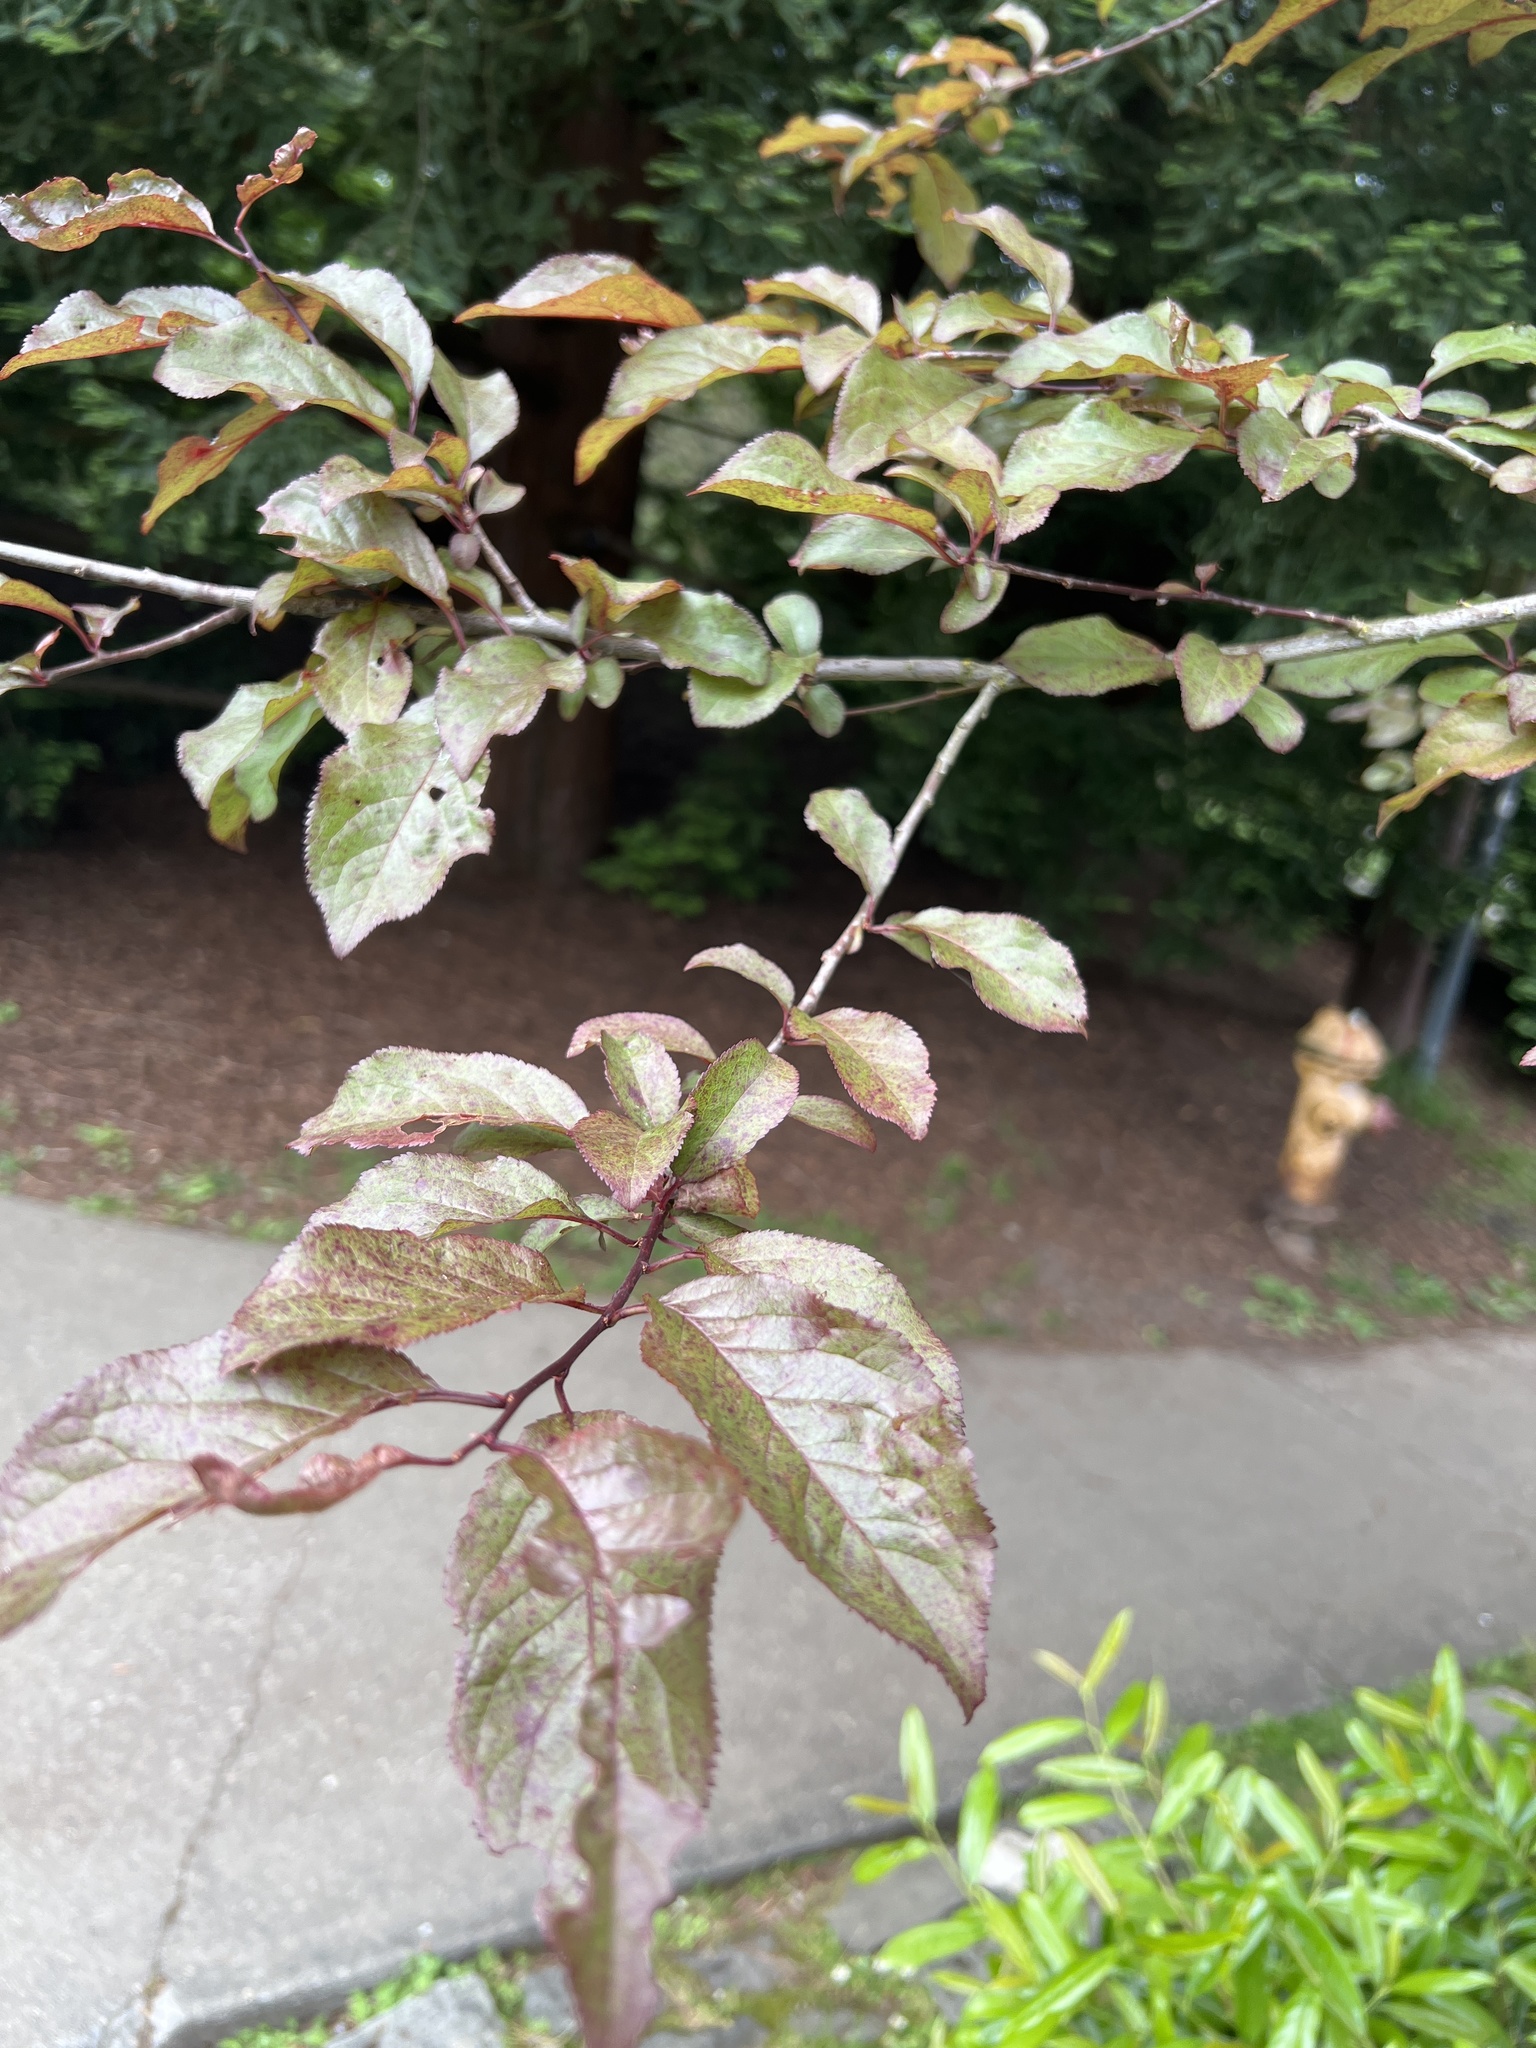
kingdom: Plantae
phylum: Tracheophyta
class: Magnoliopsida
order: Rosales
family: Rosaceae
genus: Prunus
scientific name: Prunus cerasifera
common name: Cherry plum
